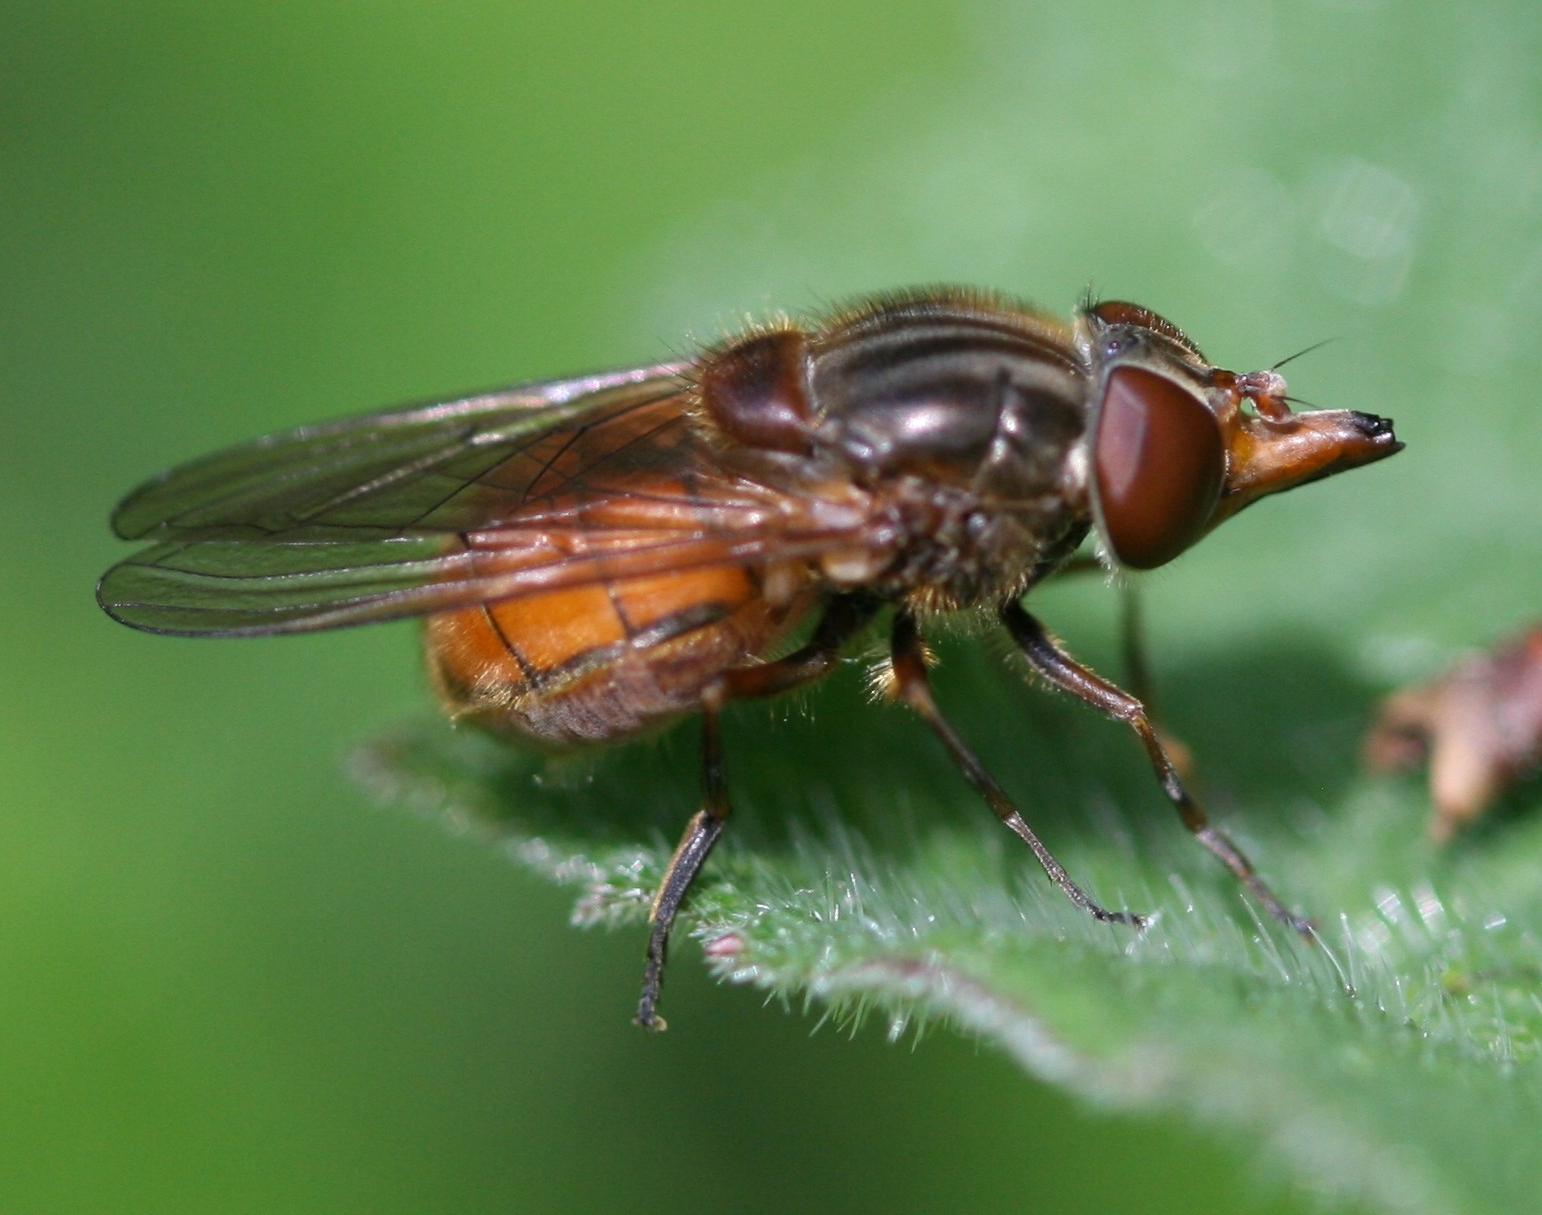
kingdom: Animalia
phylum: Arthropoda
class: Insecta
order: Diptera
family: Syrphidae
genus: Rhingia
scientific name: Rhingia campestris
